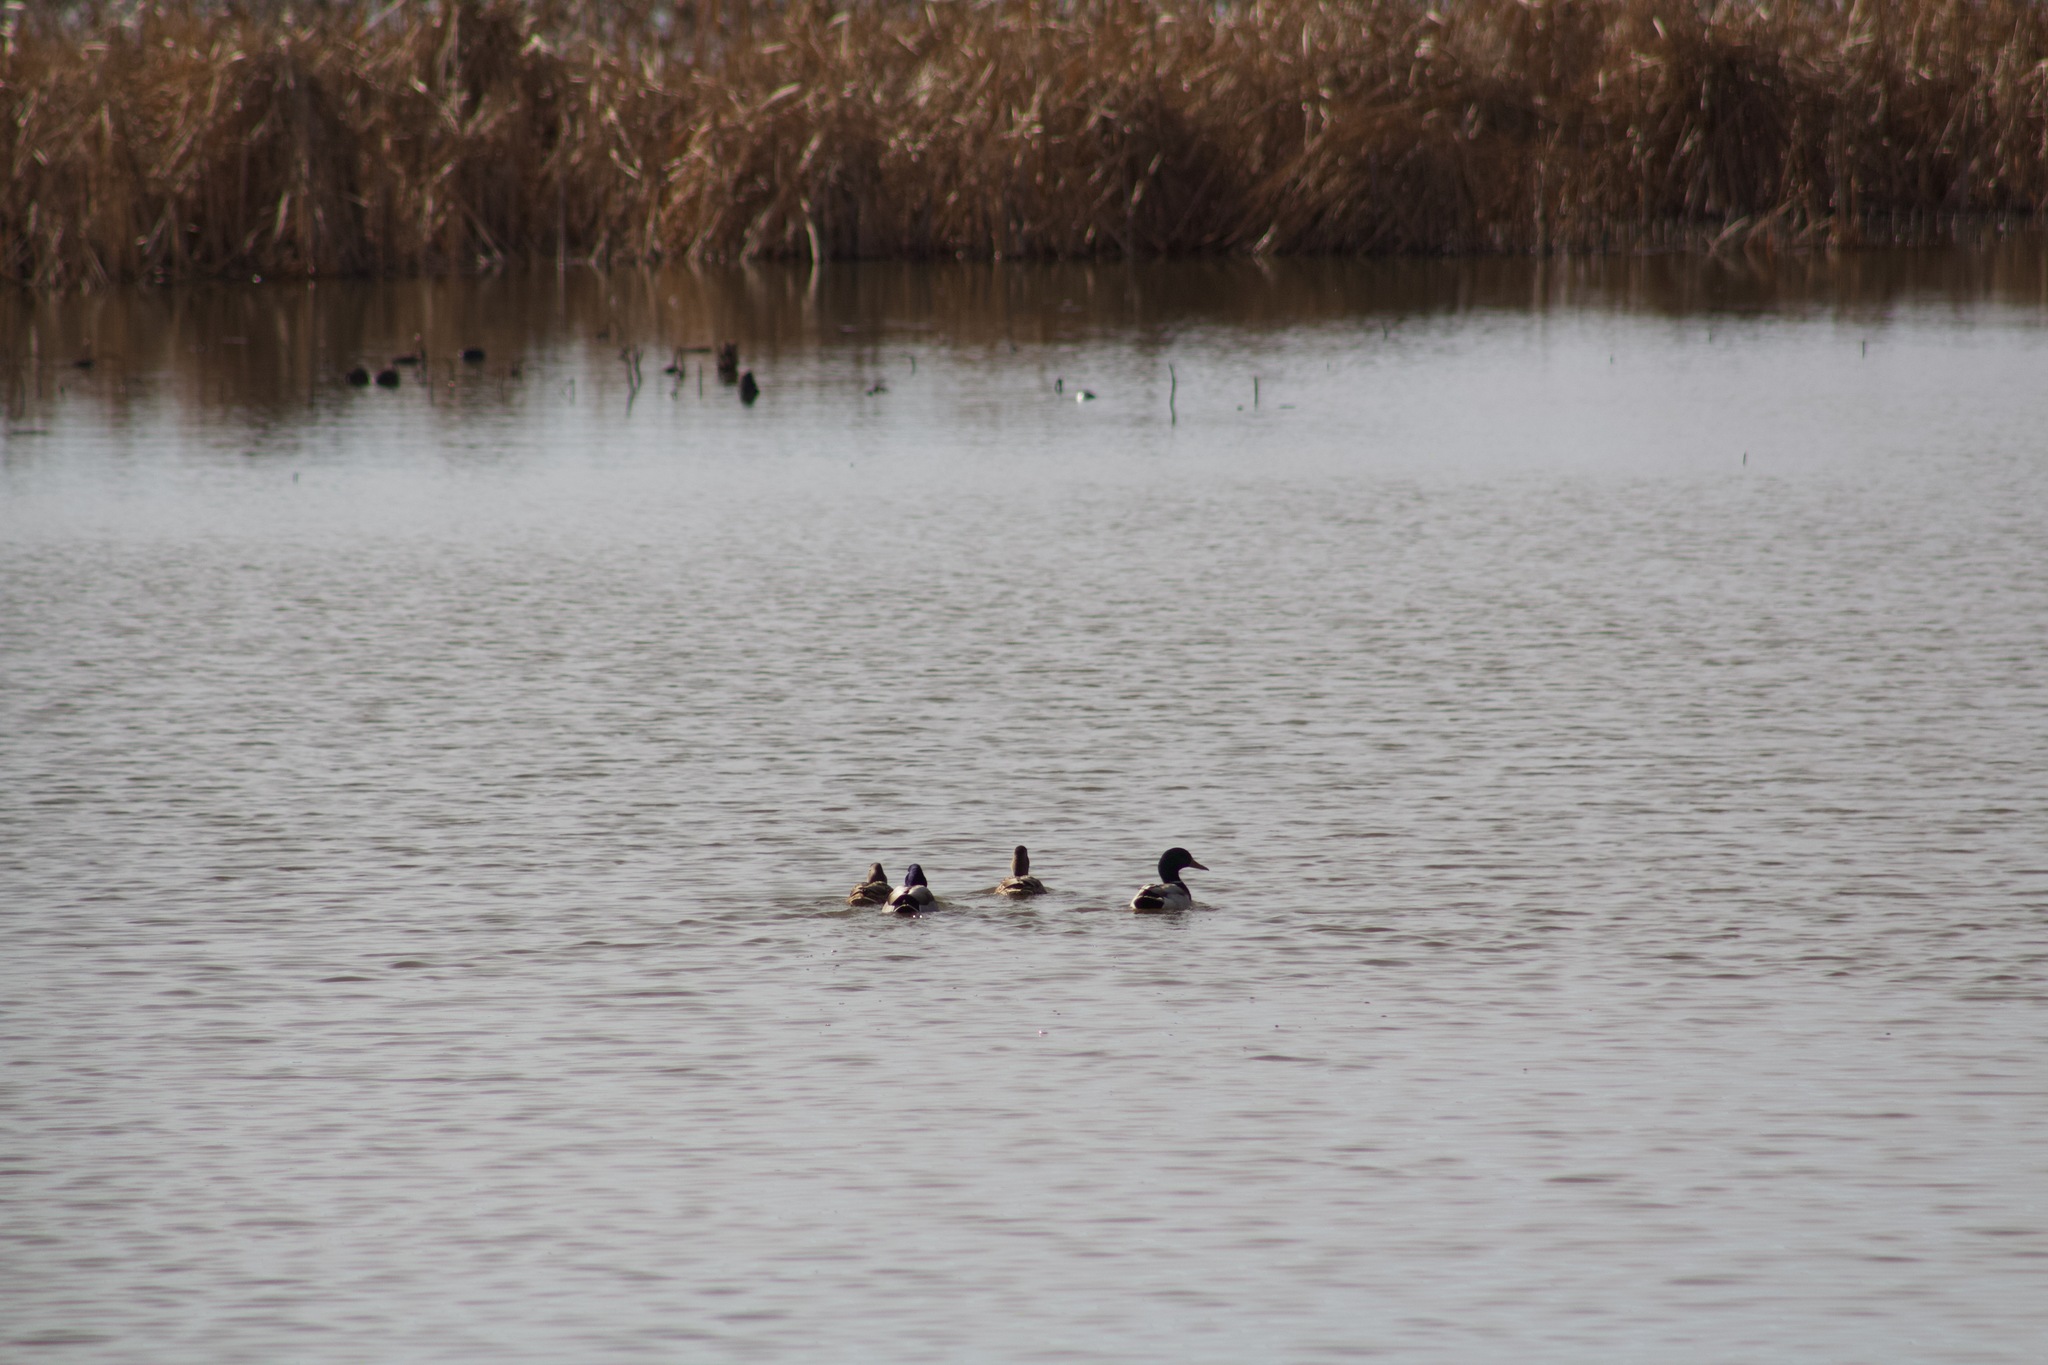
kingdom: Animalia
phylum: Chordata
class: Aves
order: Anseriformes
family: Anatidae
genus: Anas
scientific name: Anas platyrhynchos
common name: Mallard
